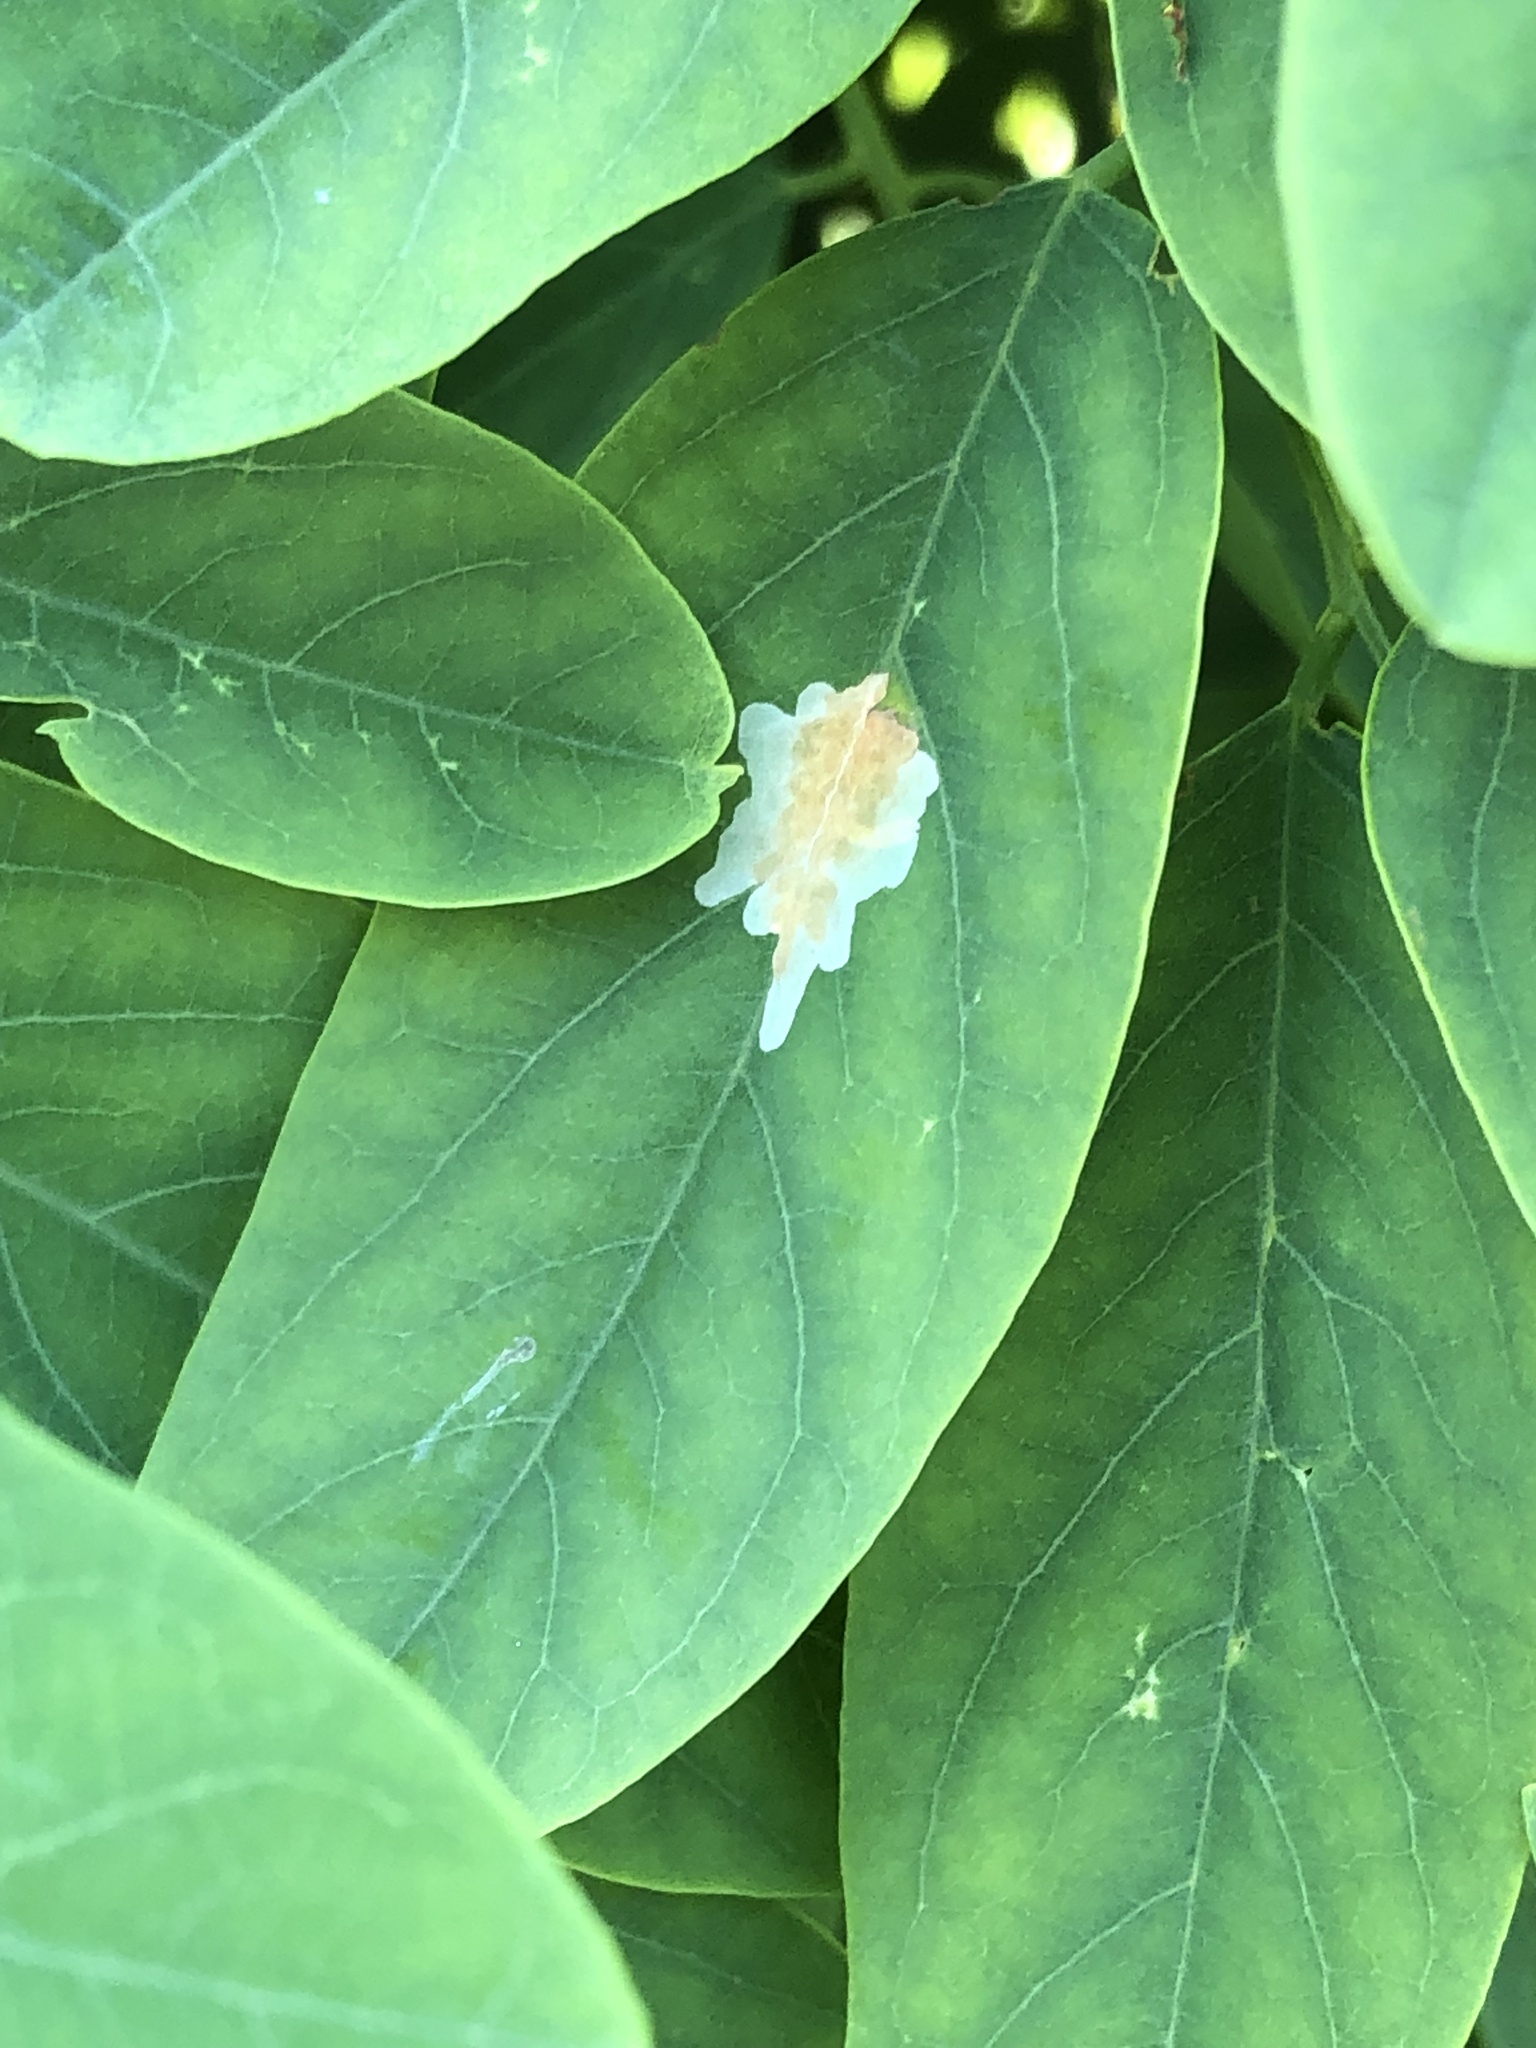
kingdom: Animalia
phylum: Arthropoda
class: Insecta
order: Lepidoptera
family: Gracillariidae
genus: Parectopa
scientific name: Parectopa robiniella
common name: Locust digitate leafminer
